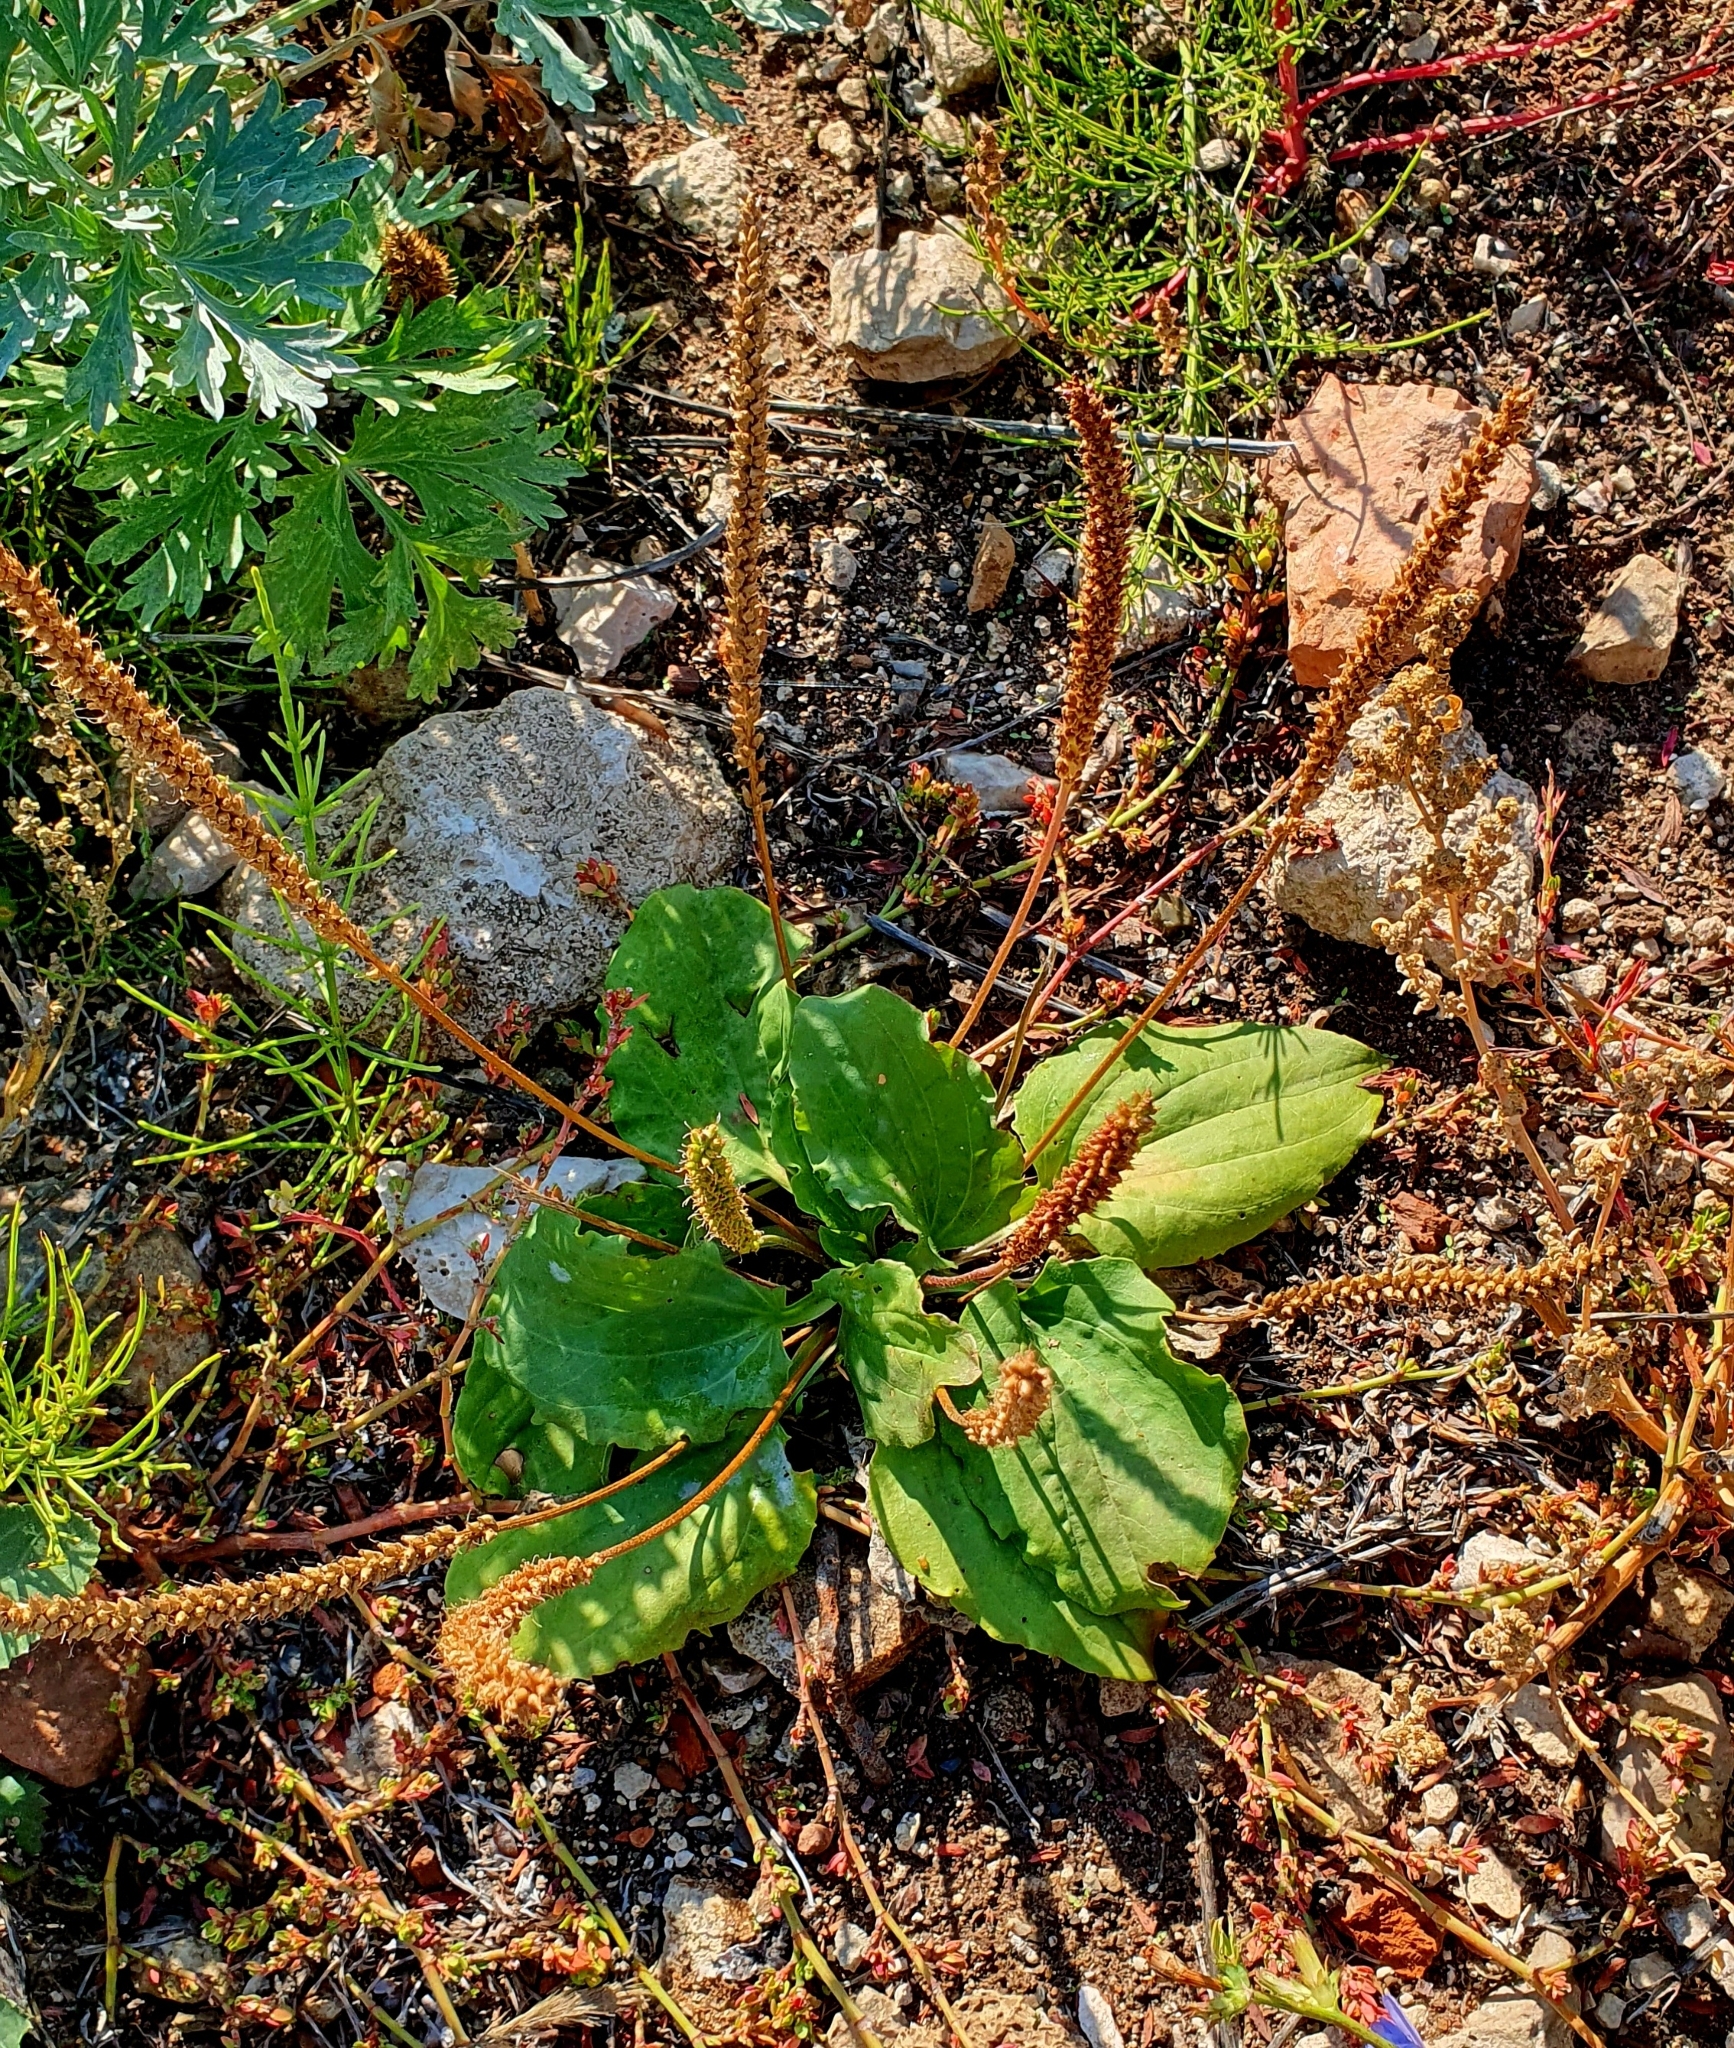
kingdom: Plantae
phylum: Tracheophyta
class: Magnoliopsida
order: Lamiales
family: Plantaginaceae
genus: Plantago
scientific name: Plantago major
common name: Common plantain
